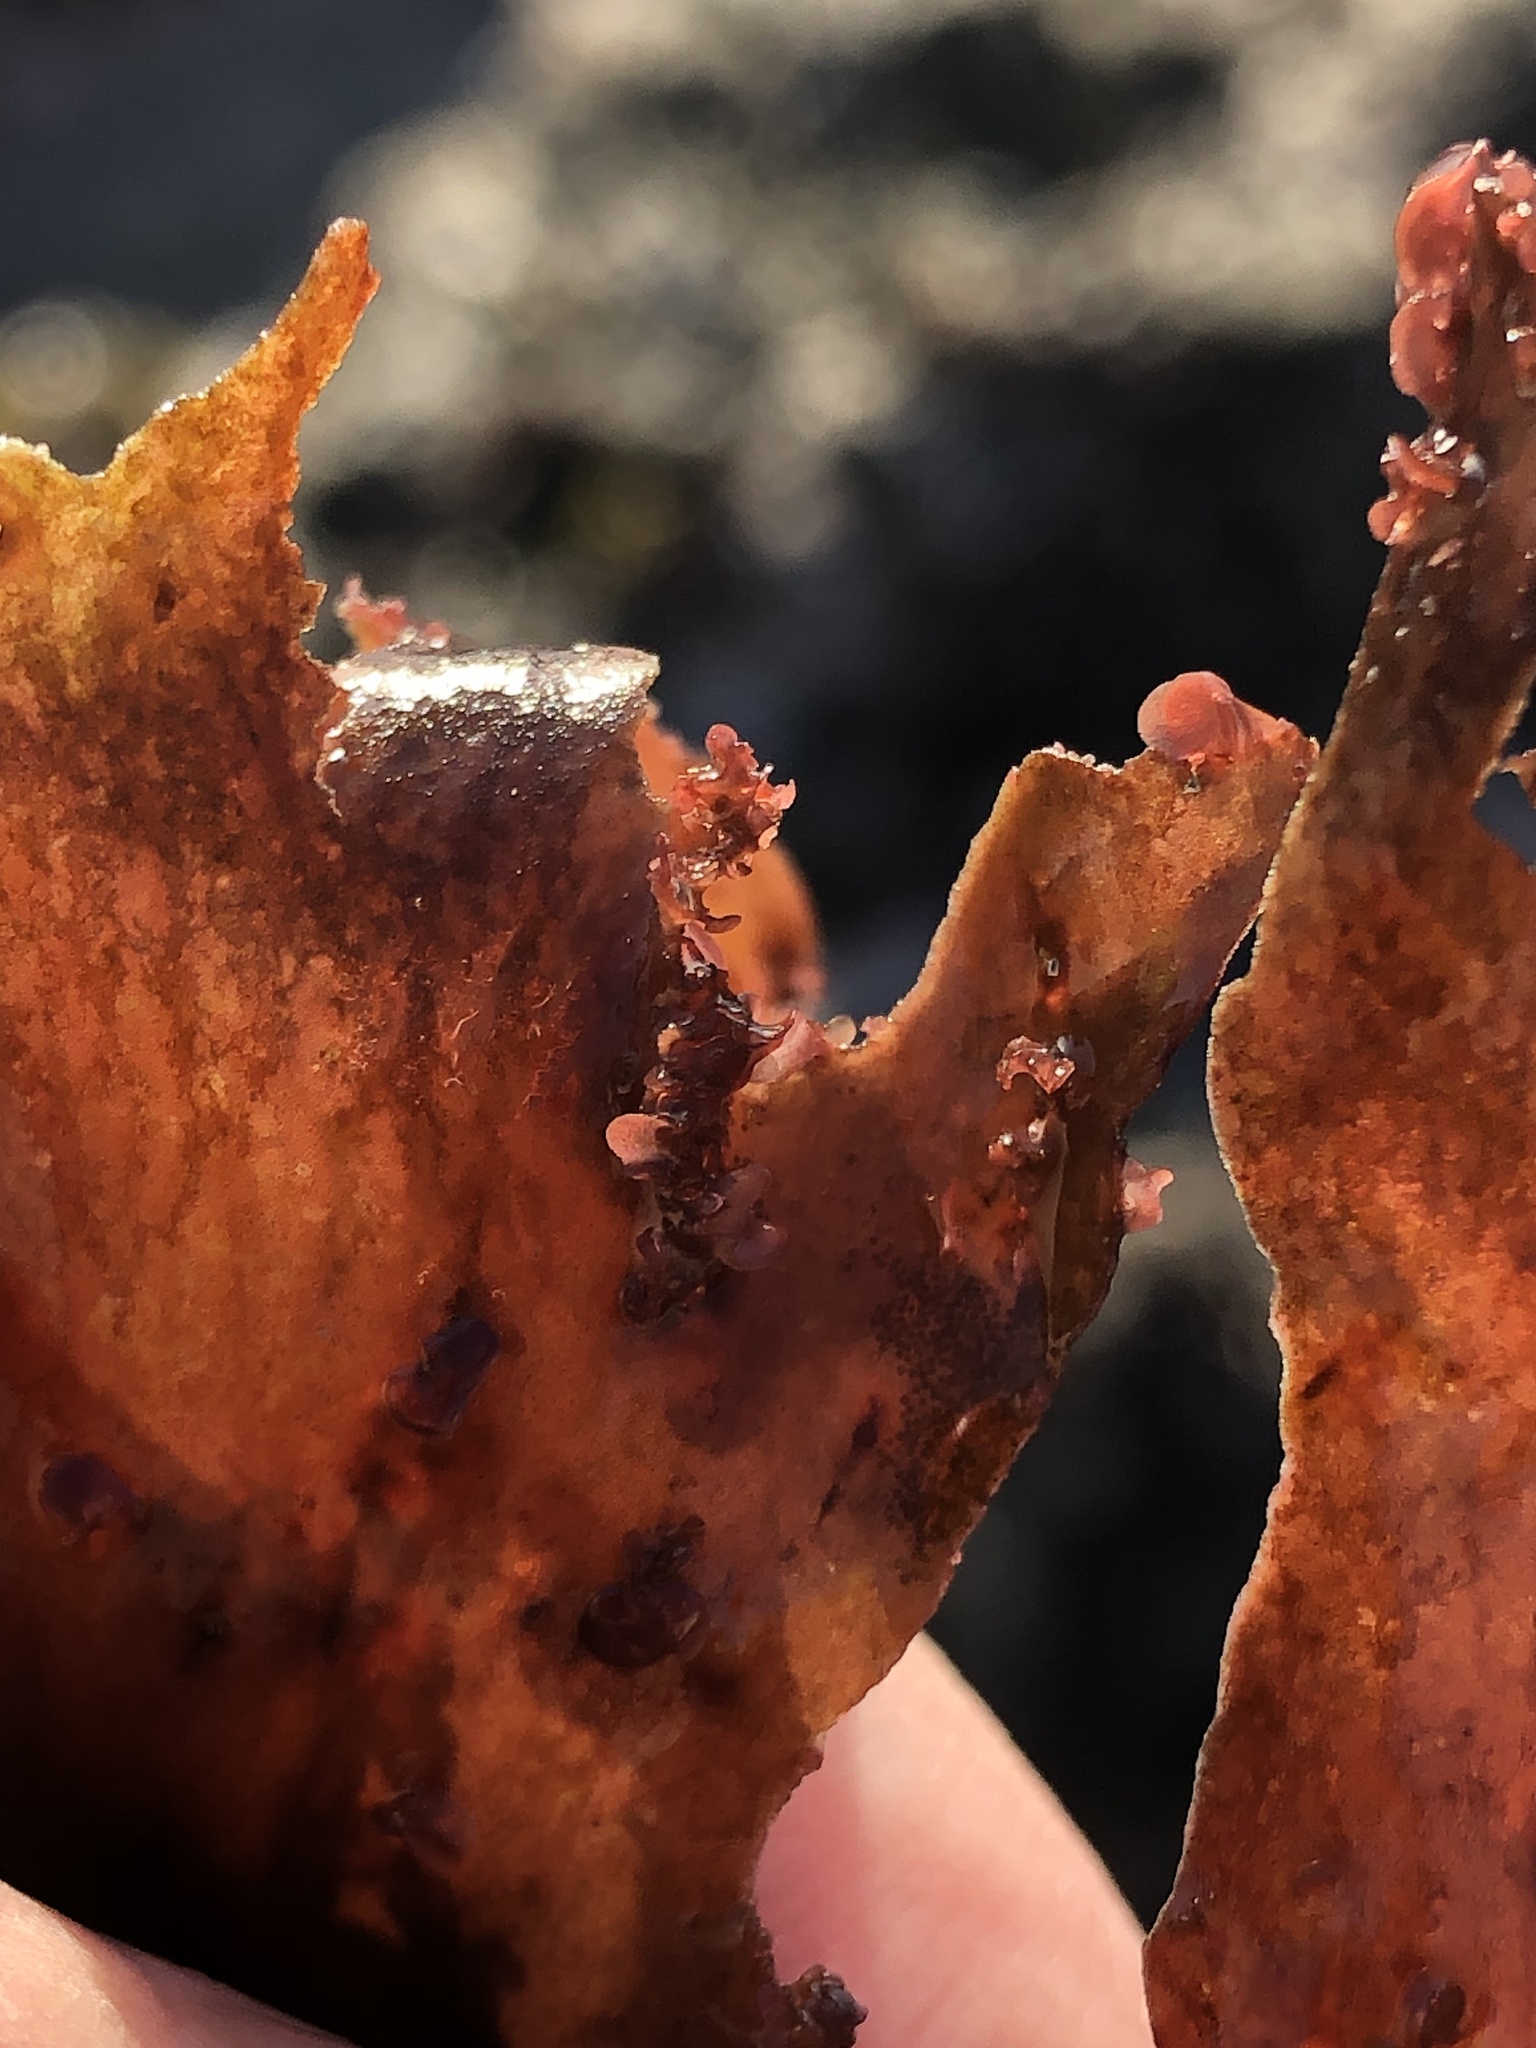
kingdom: Plantae
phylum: Rhodophyta
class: Florideophyceae
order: Ceramiales
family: Delesseriaceae
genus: Cryptopleura
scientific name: Cryptopleura ruprechtiana
